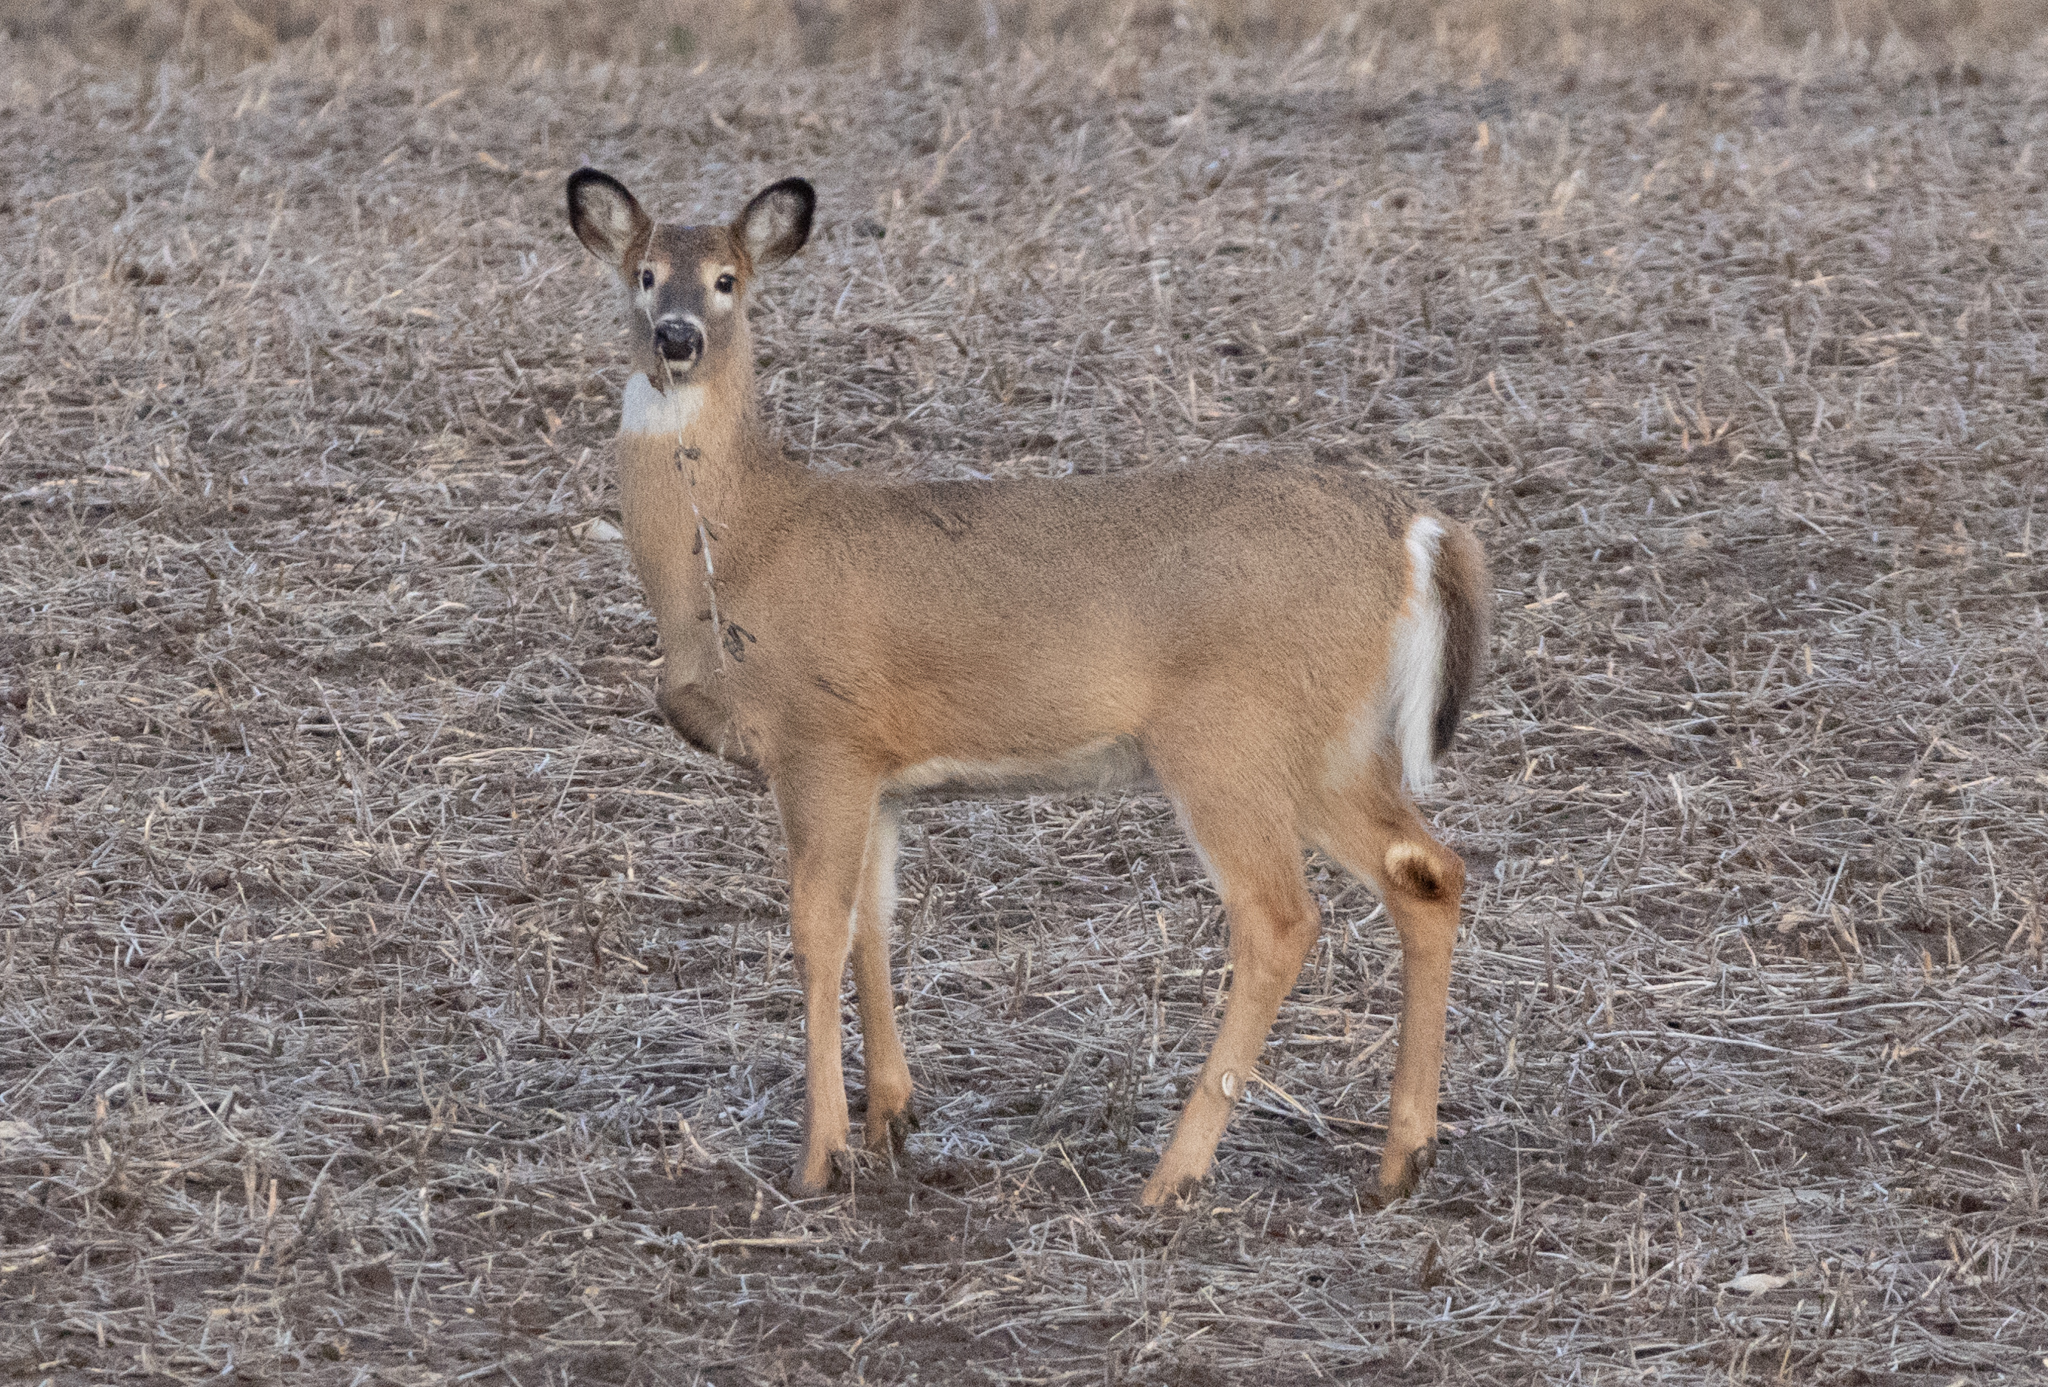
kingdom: Animalia
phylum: Chordata
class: Mammalia
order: Artiodactyla
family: Cervidae
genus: Odocoileus
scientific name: Odocoileus virginianus
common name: White-tailed deer
